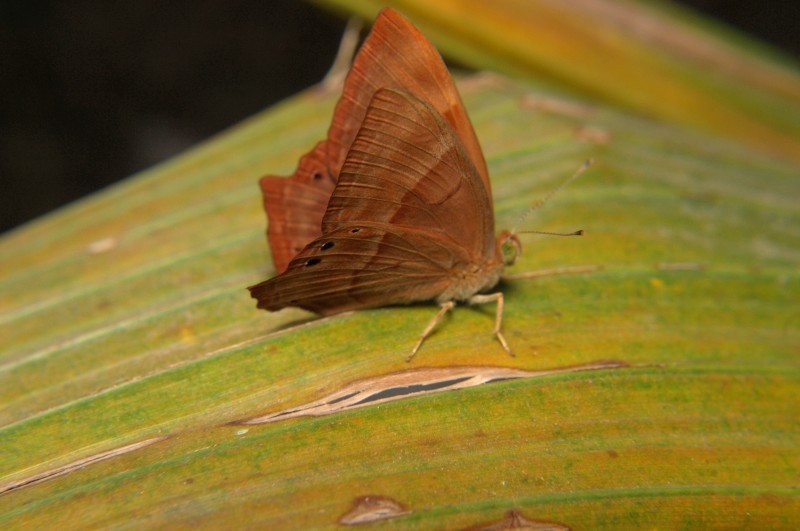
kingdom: Animalia
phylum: Arthropoda
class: Insecta
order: Lepidoptera
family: Lycaenidae
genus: Abisara
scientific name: Abisara bifasciata
